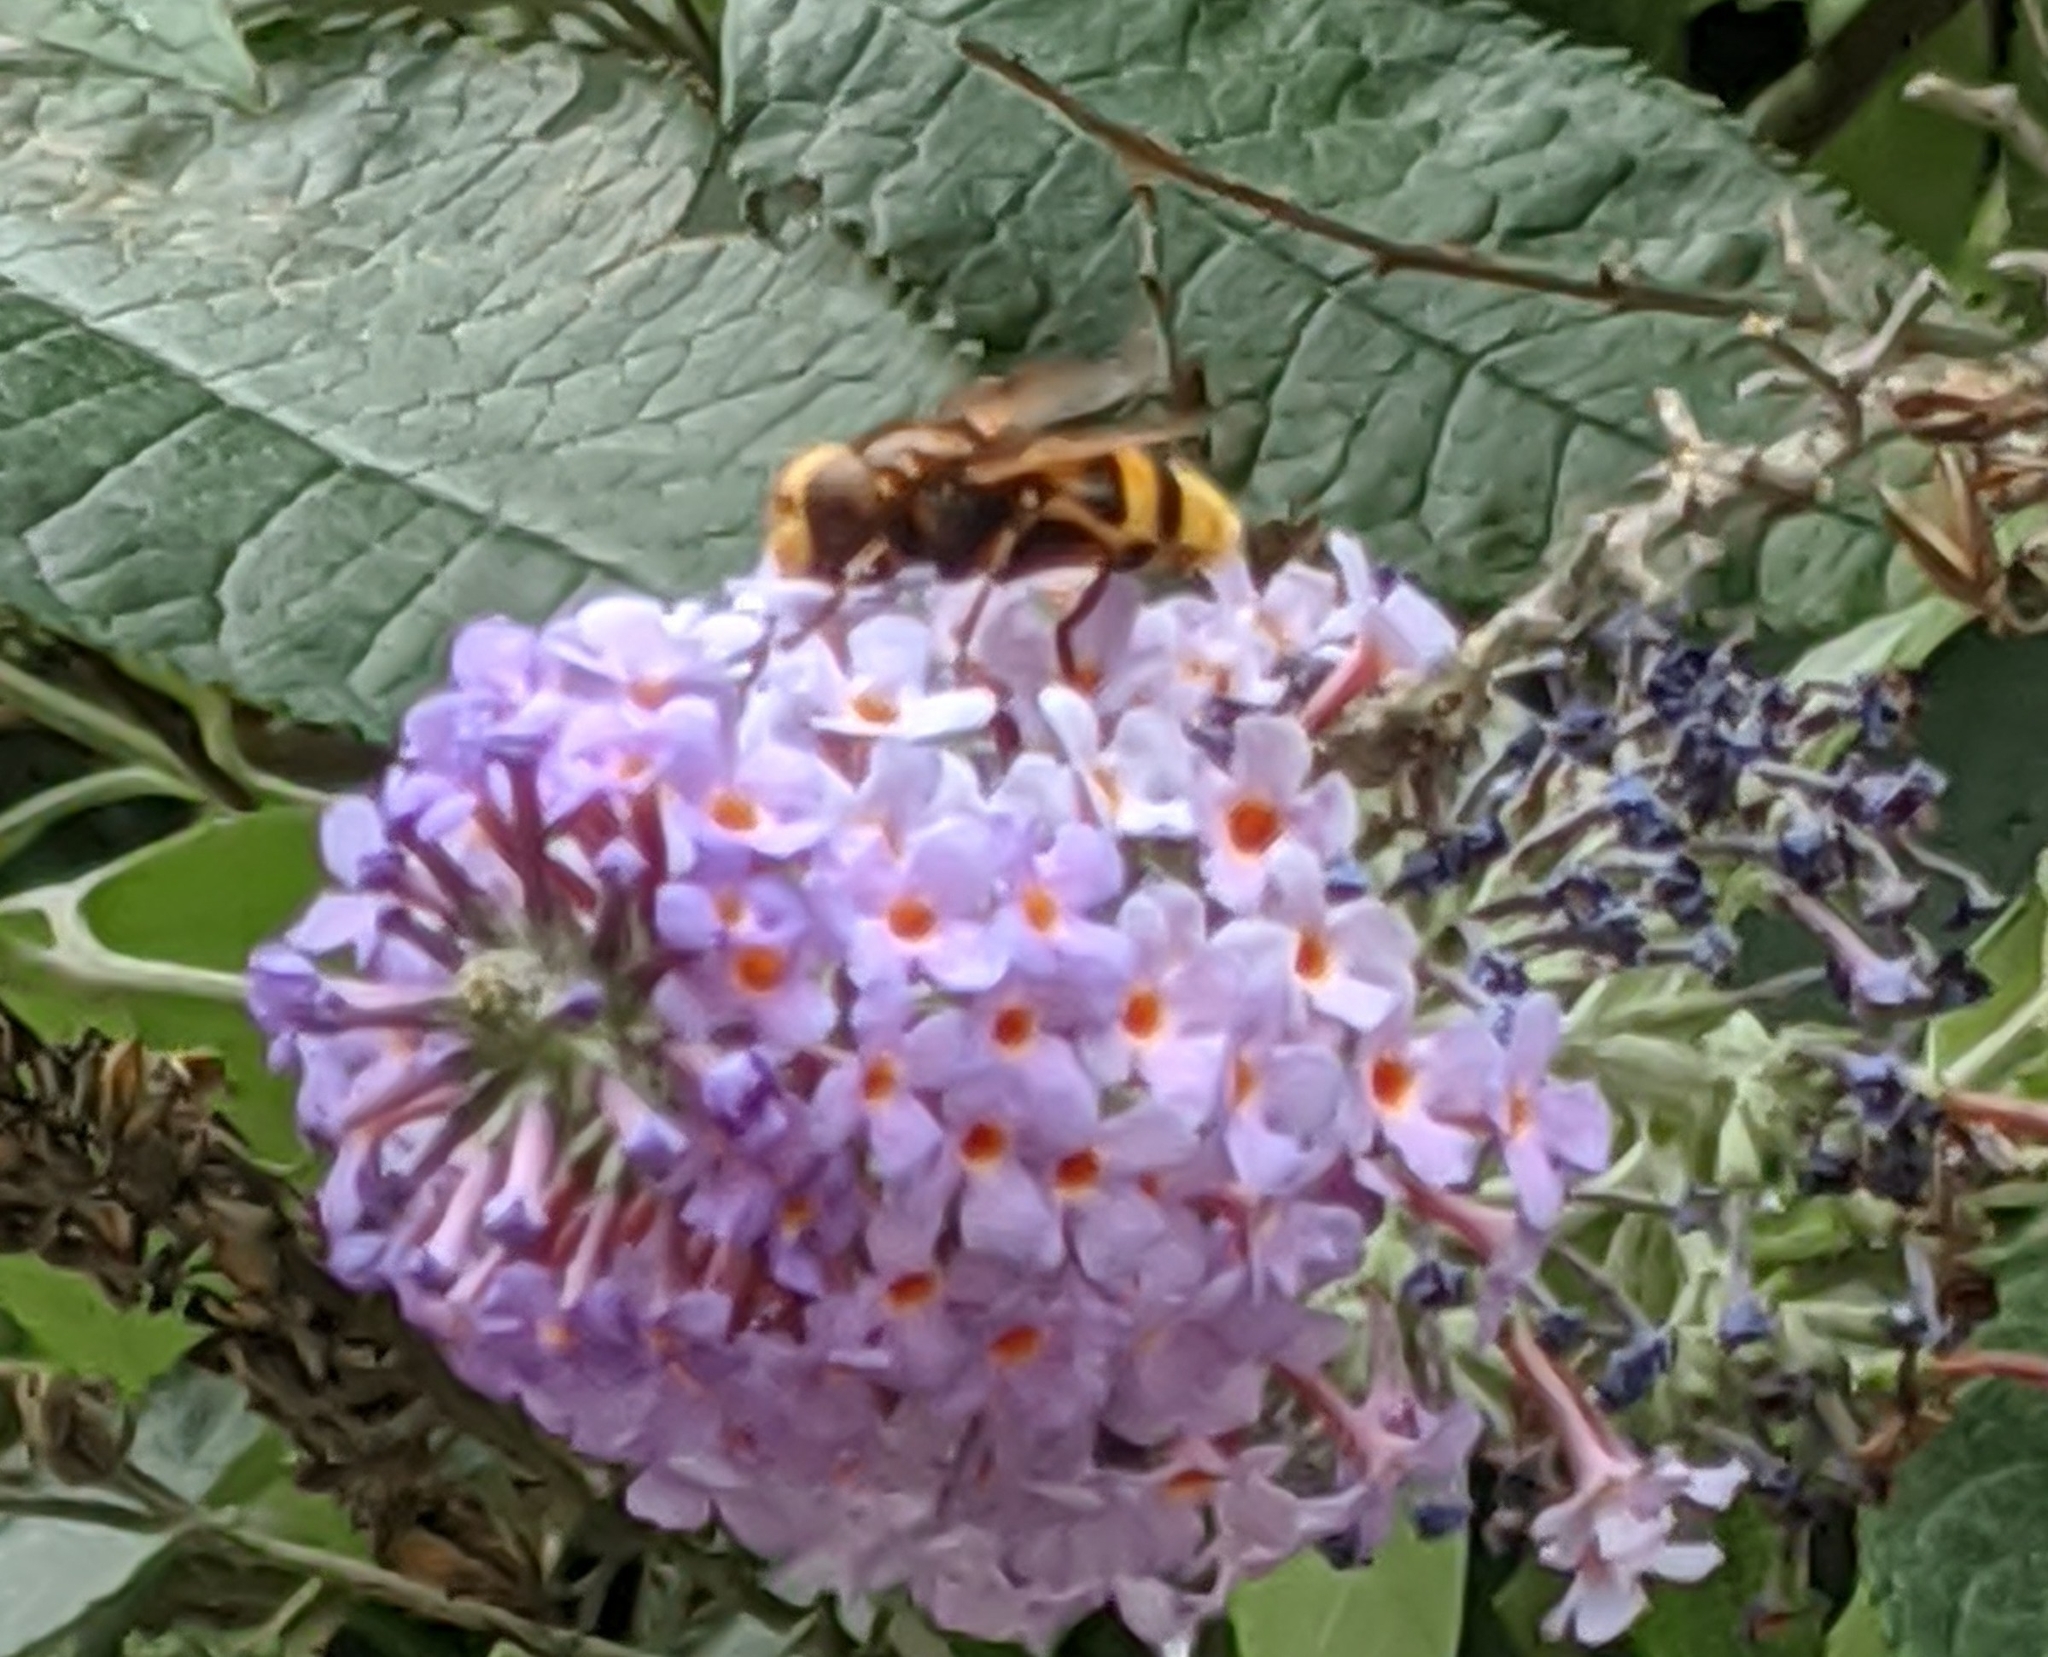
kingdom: Animalia
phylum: Arthropoda
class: Insecta
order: Diptera
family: Syrphidae
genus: Volucella
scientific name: Volucella zonaria
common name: Hornet hoverfly
